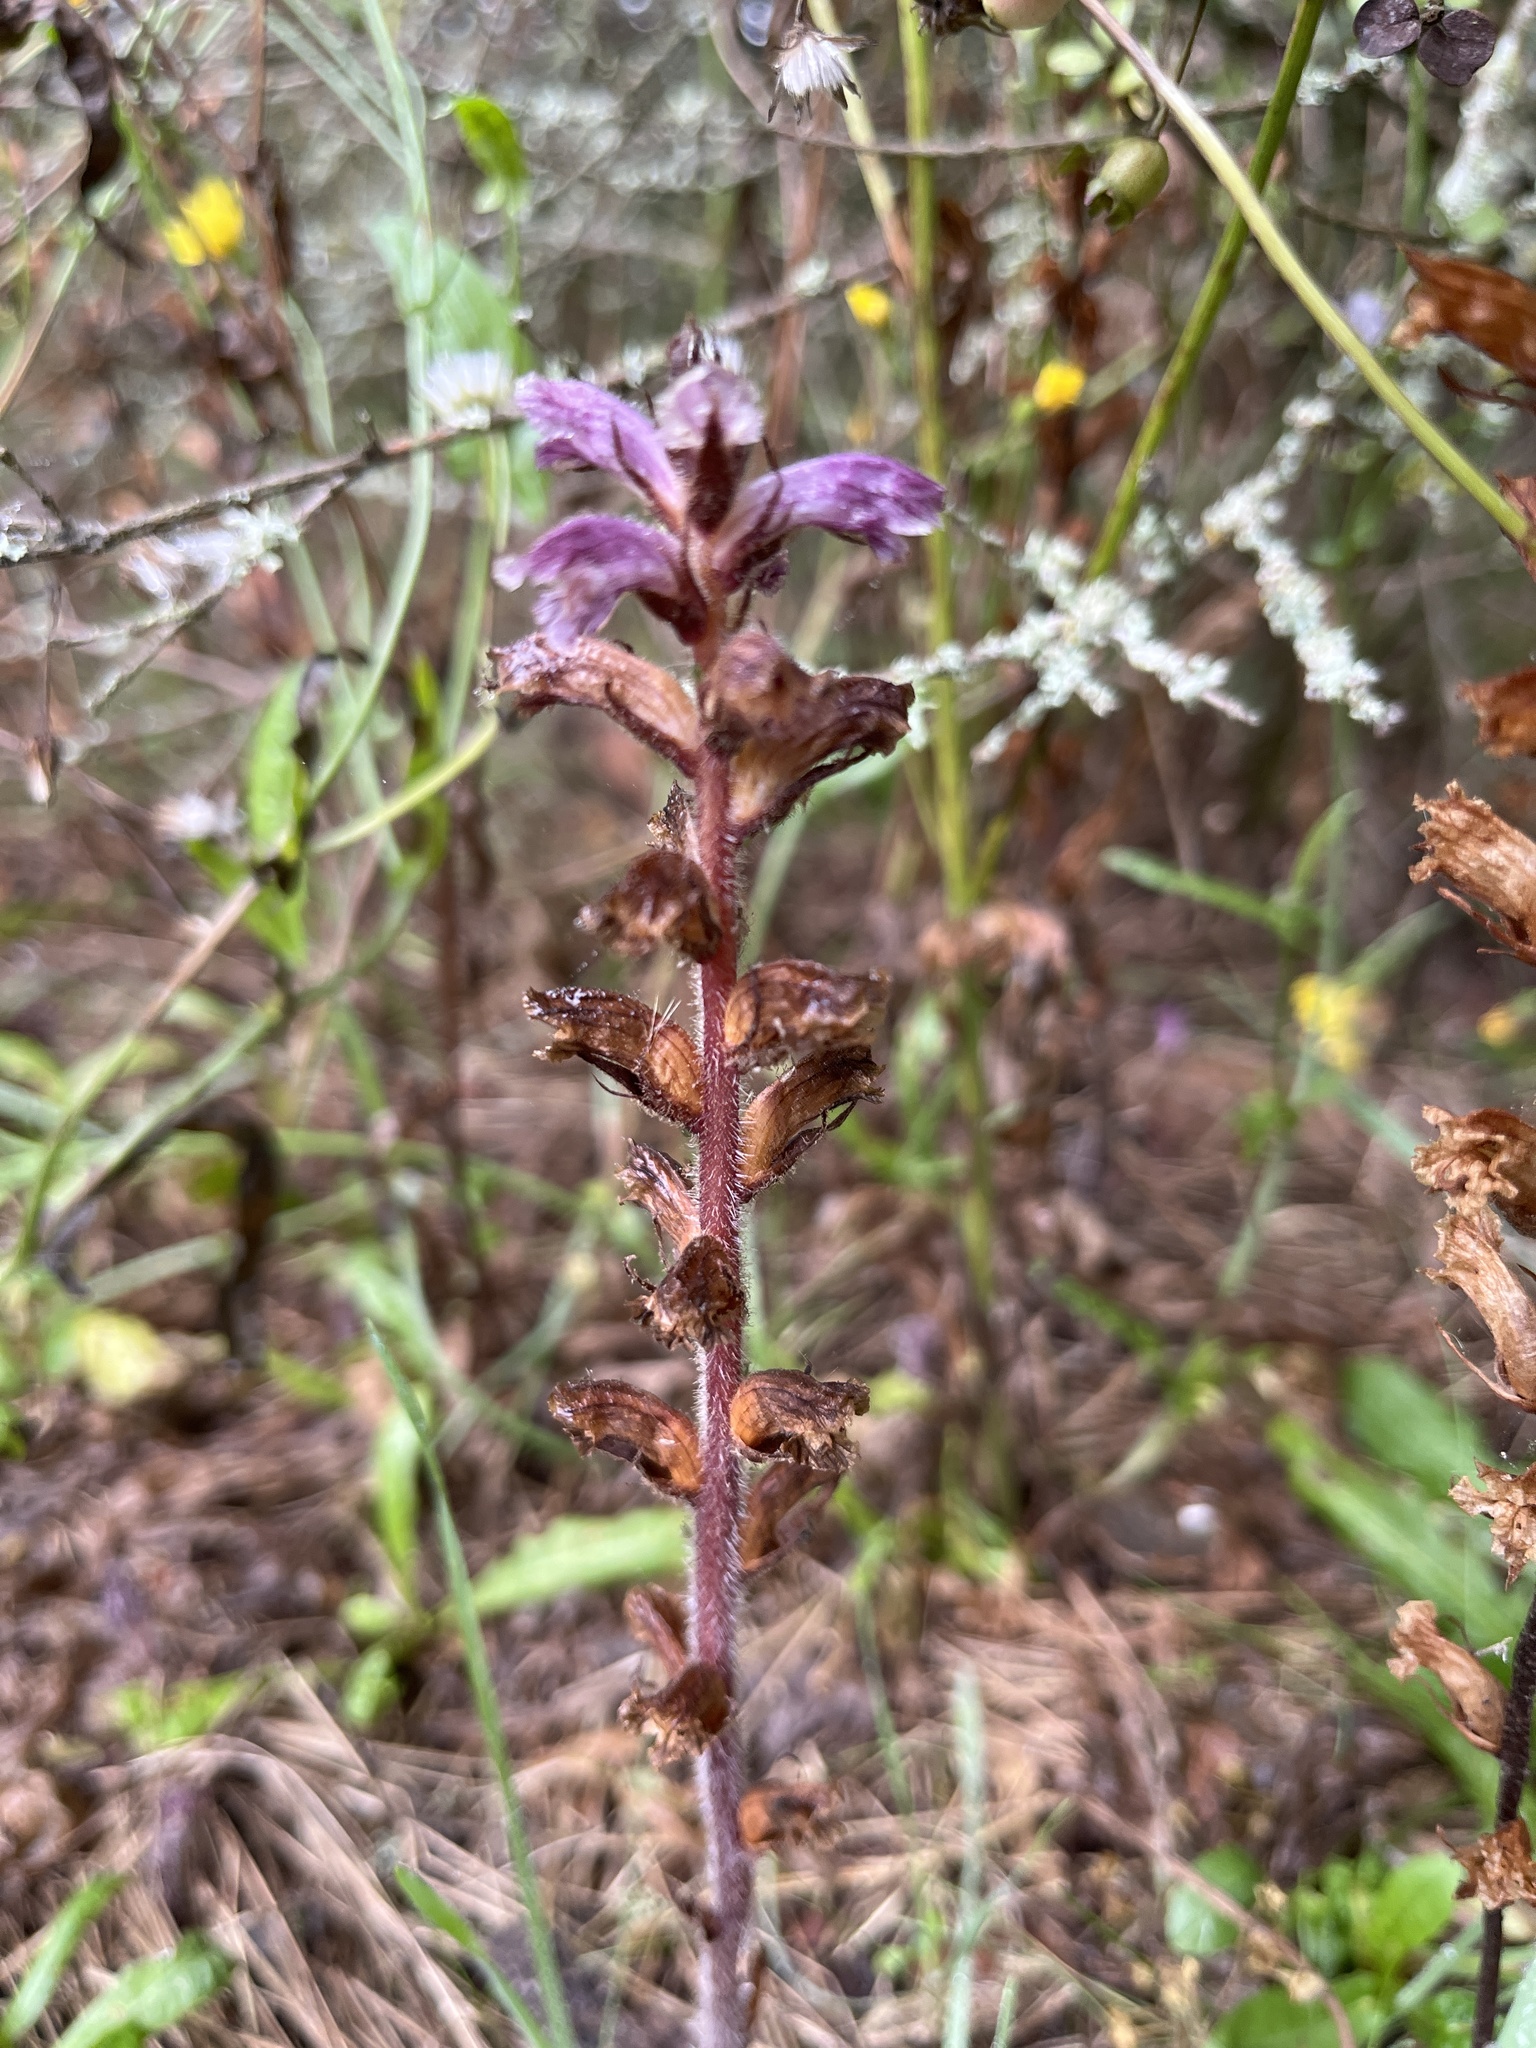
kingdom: Plantae
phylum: Tracheophyta
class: Magnoliopsida
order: Lamiales
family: Orobanchaceae
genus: Orobanche
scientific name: Orobanche minor
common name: Common broomrape
